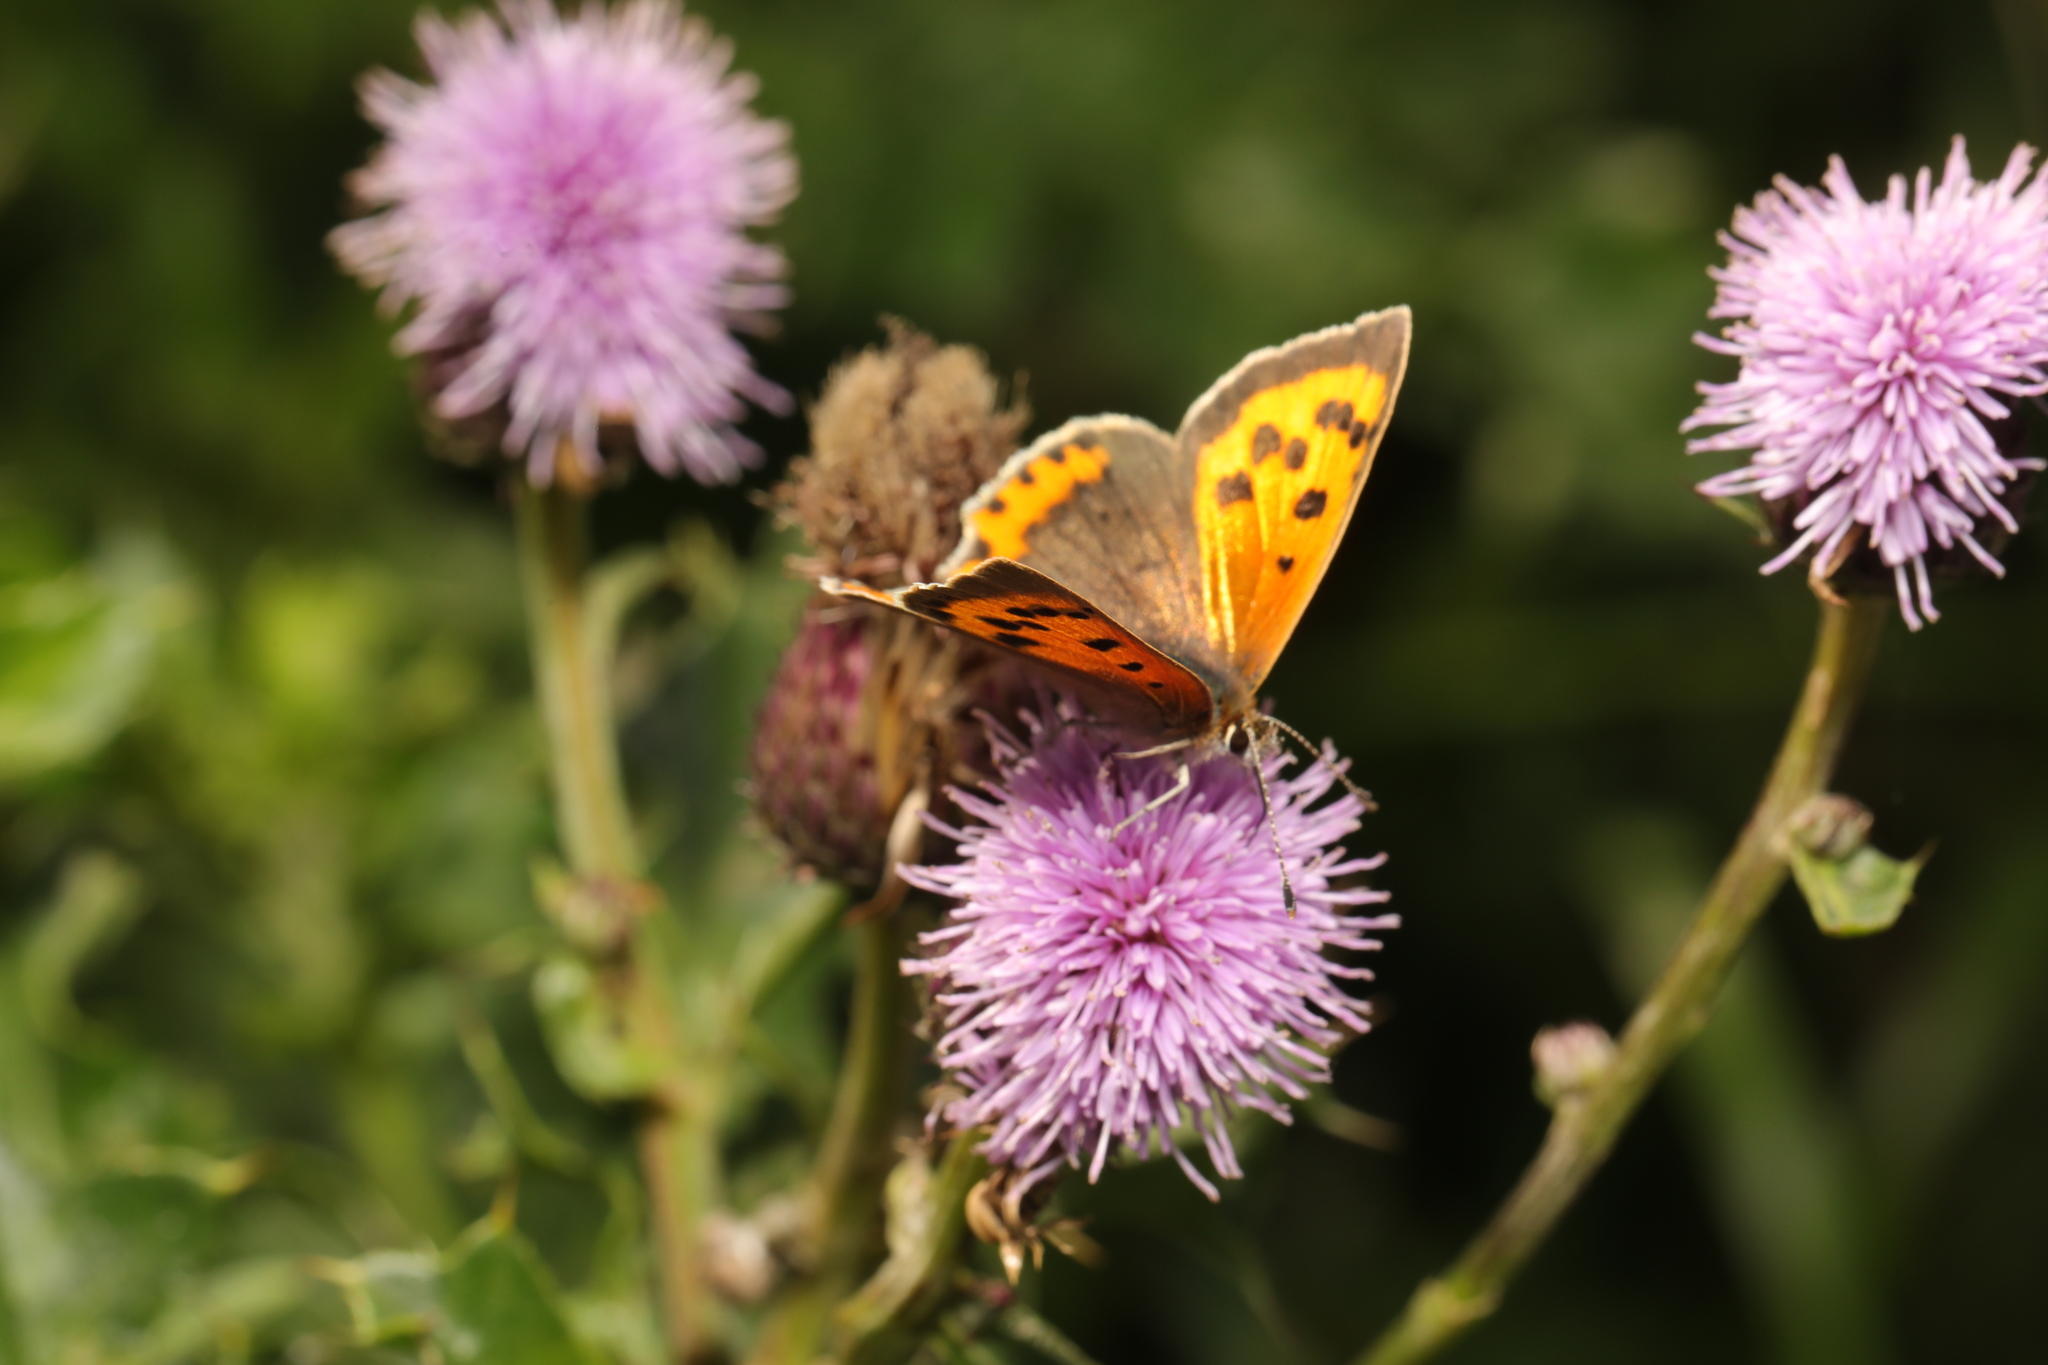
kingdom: Animalia
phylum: Arthropoda
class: Insecta
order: Lepidoptera
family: Lycaenidae
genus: Lycaena
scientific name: Lycaena phlaeas
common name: Small copper
